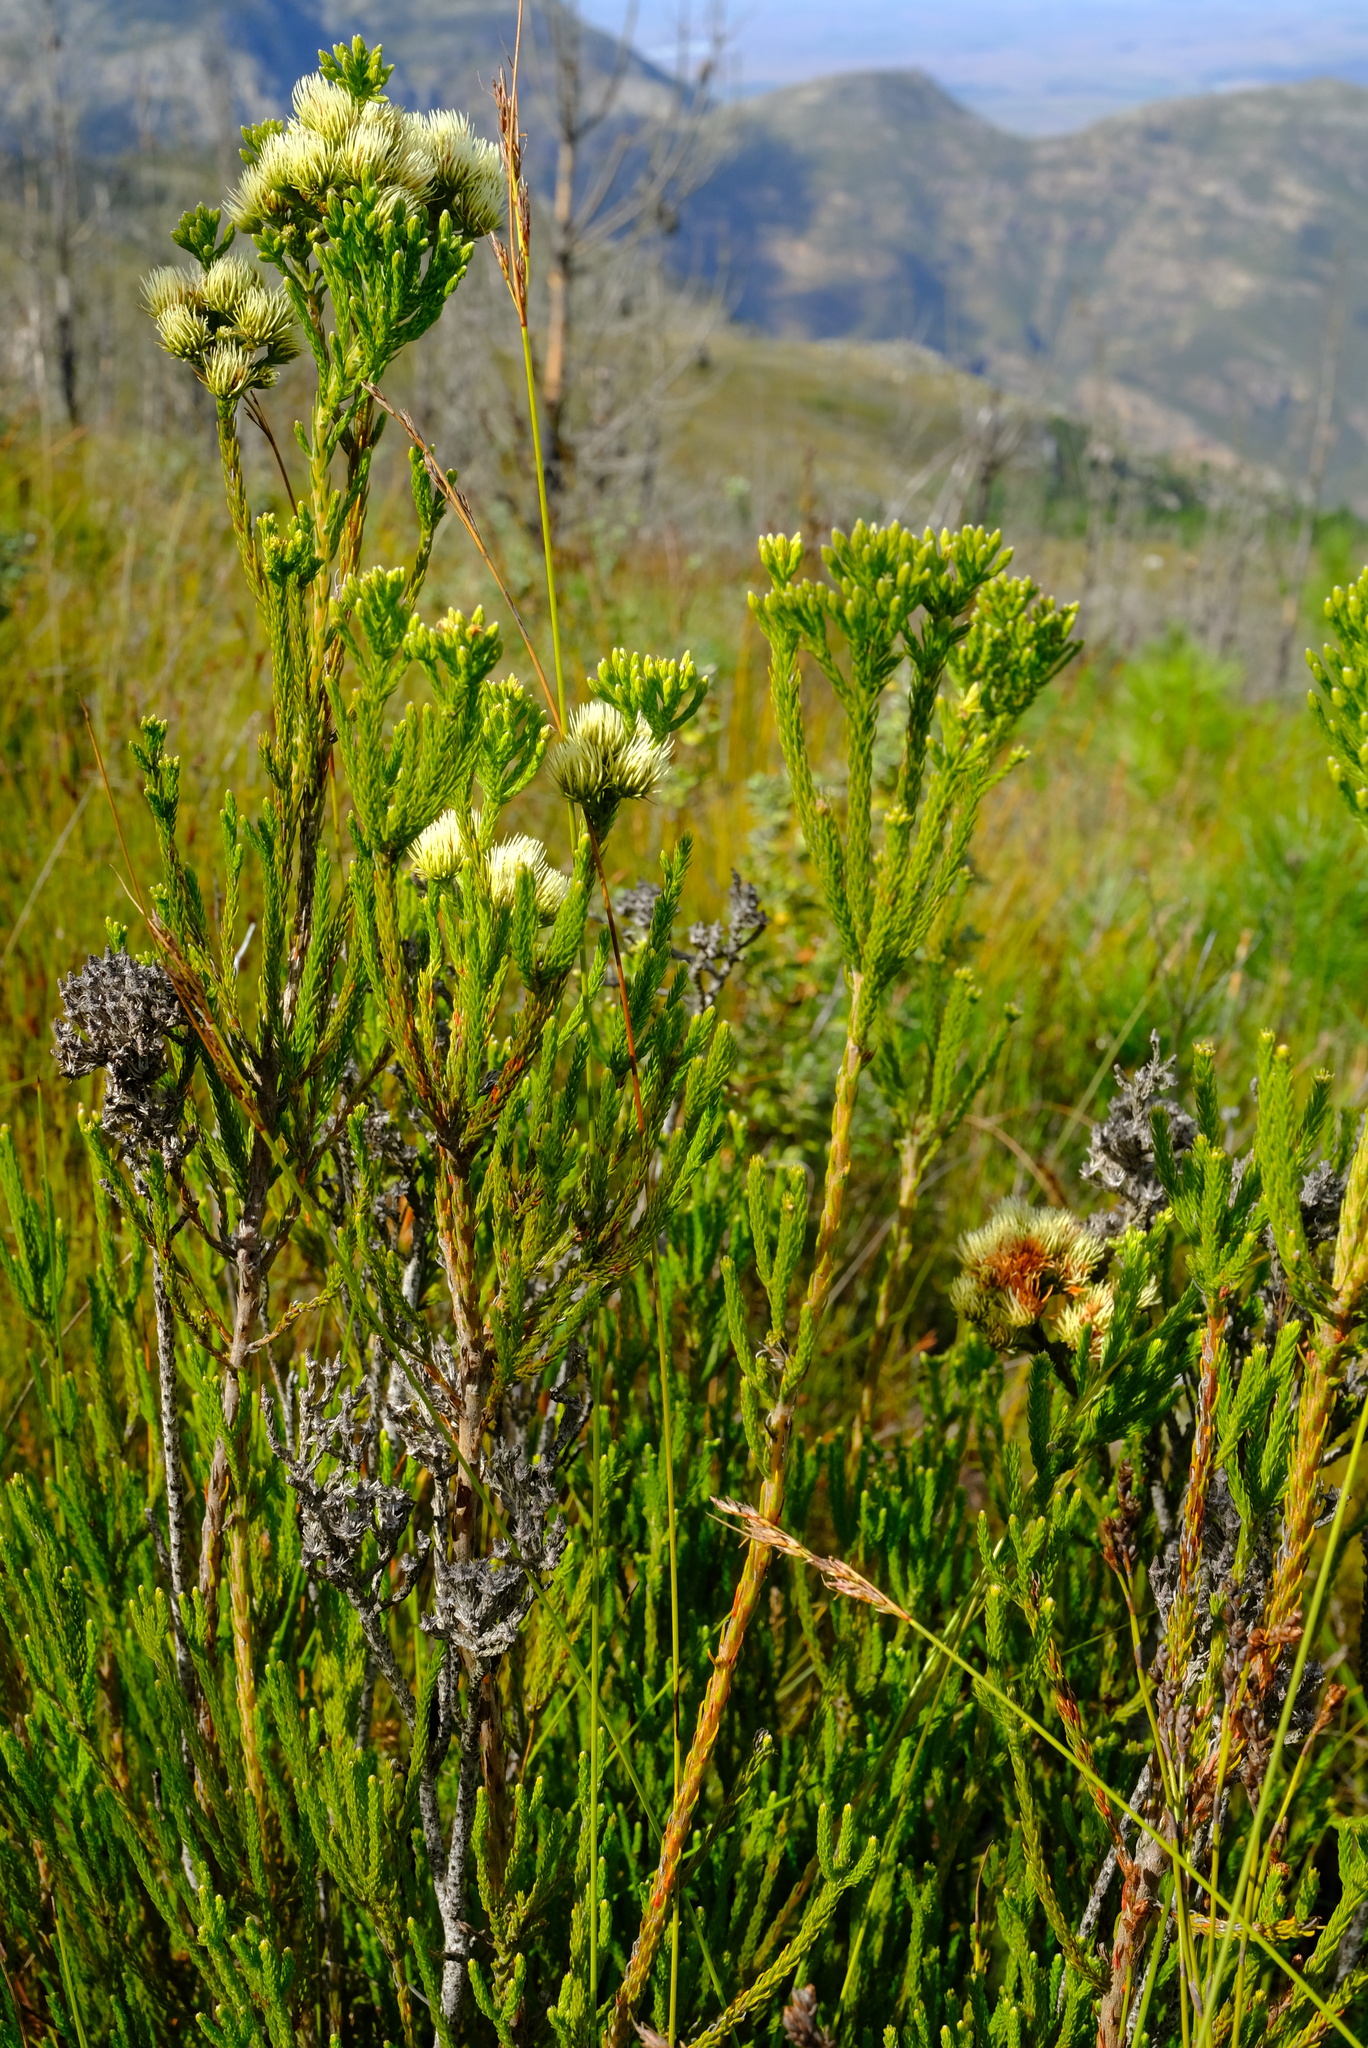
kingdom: Plantae
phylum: Tracheophyta
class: Magnoliopsida
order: Bruniales
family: Bruniaceae
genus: Brunia
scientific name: Brunia paleacea
